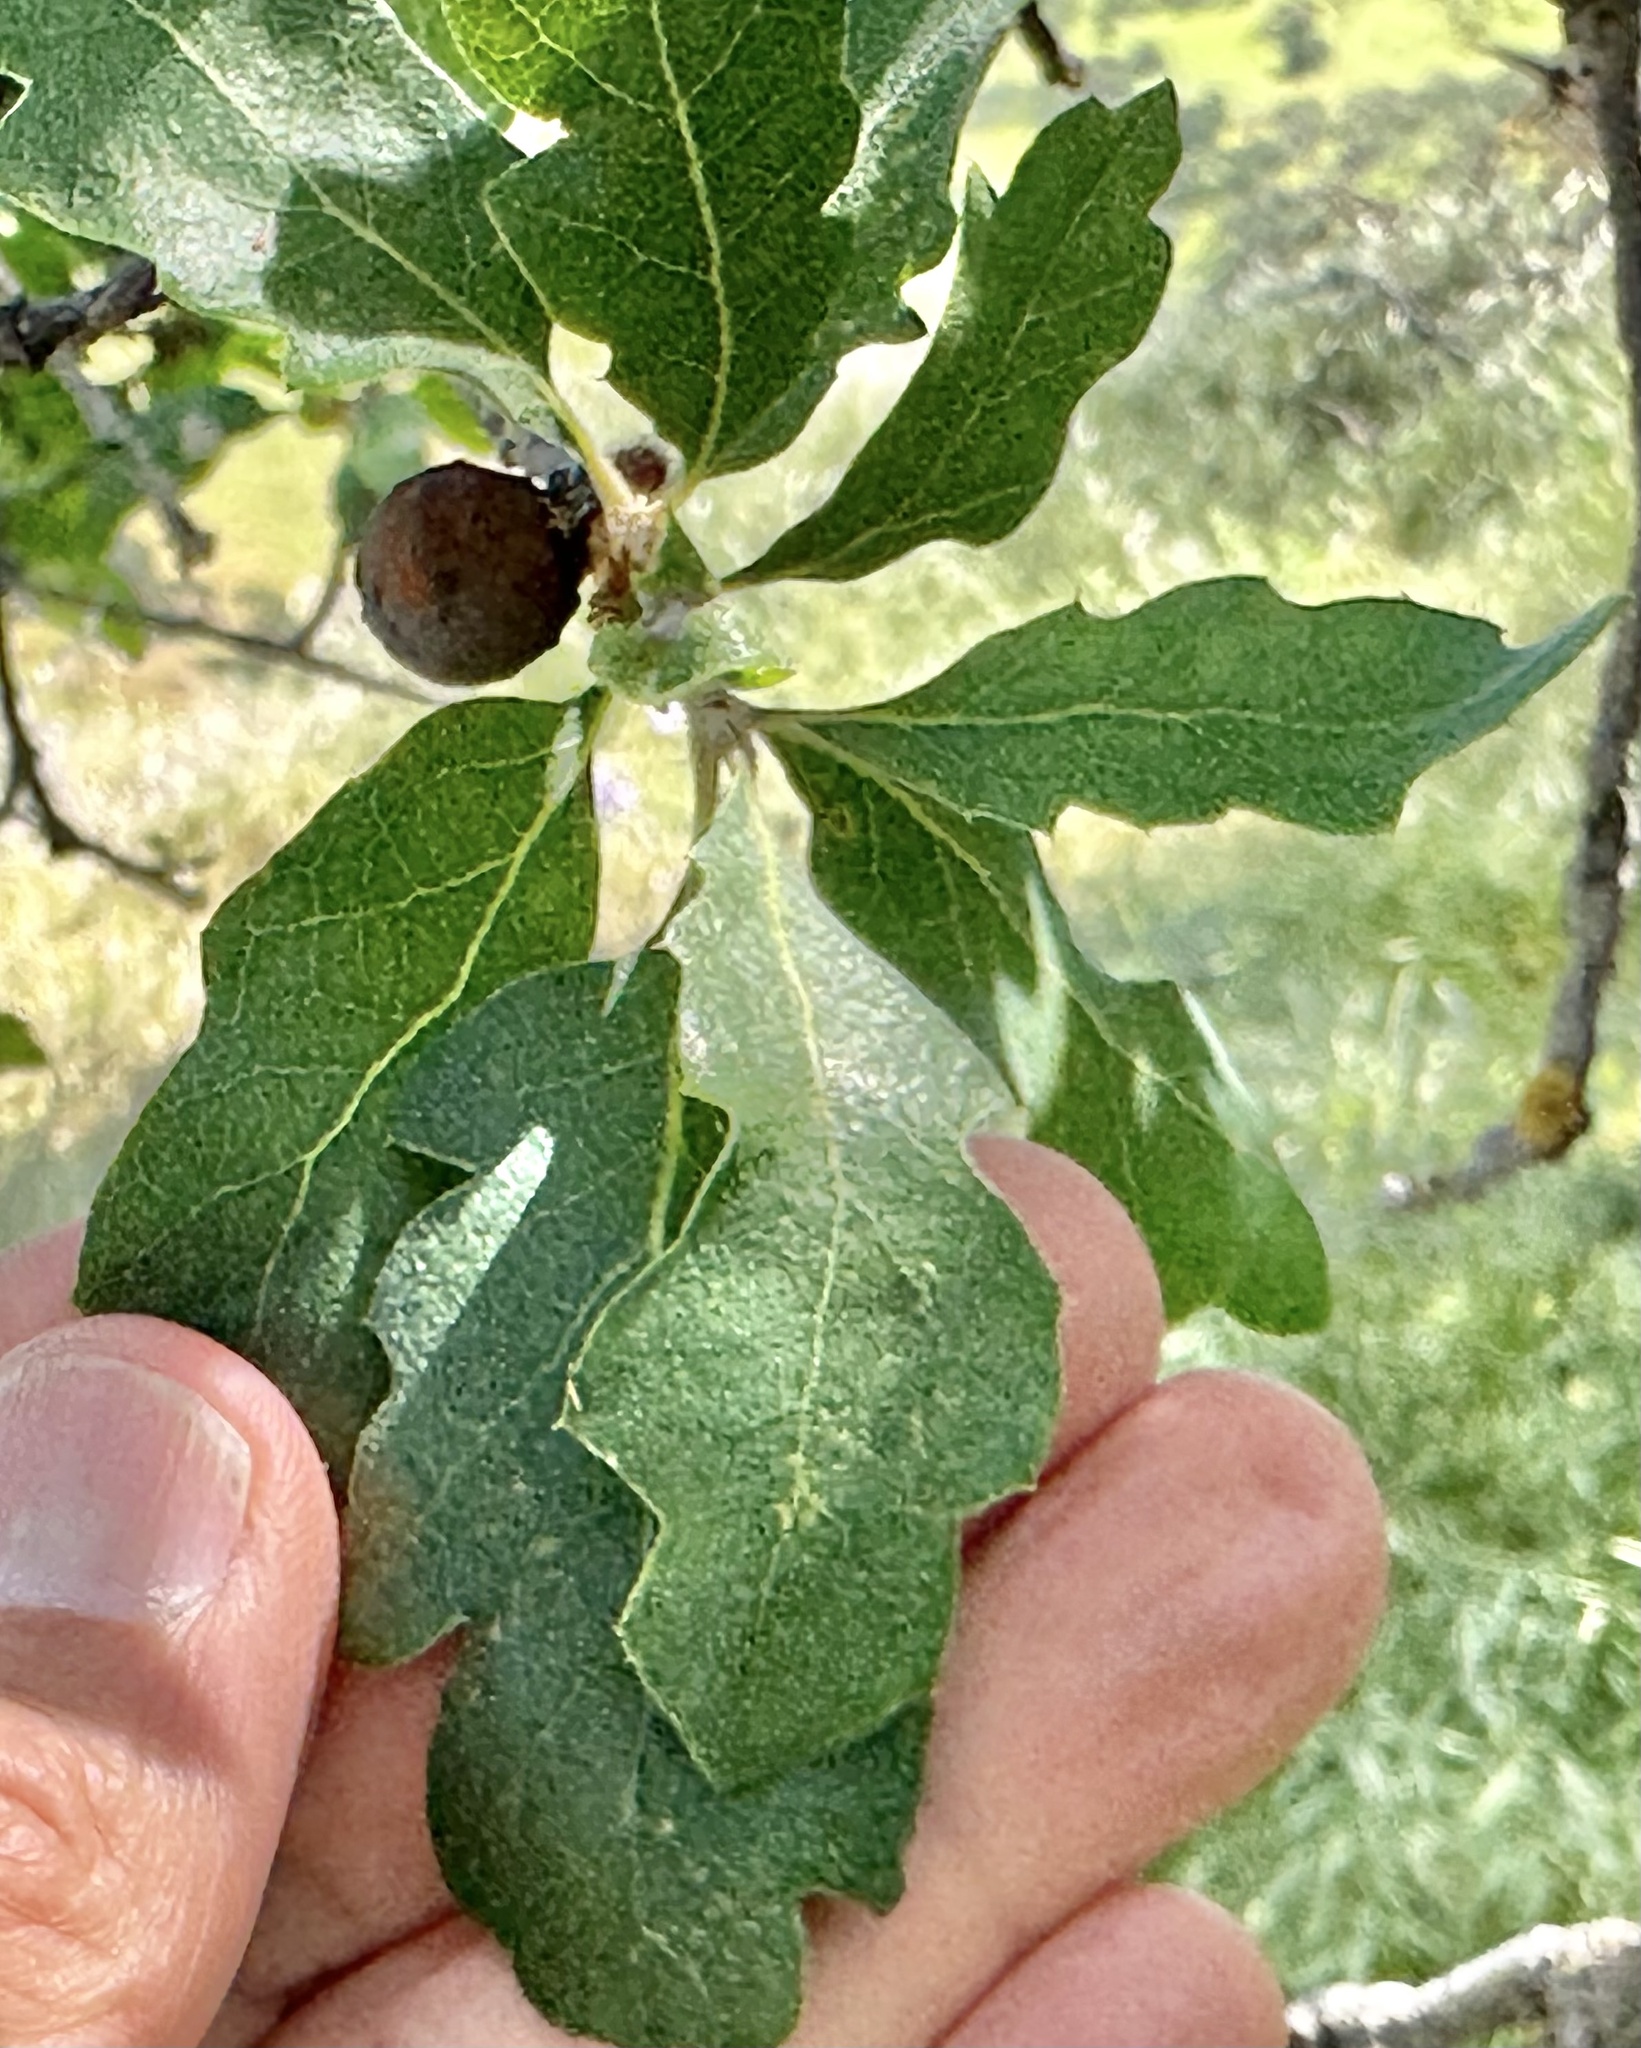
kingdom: Plantae
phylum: Tracheophyta
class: Magnoliopsida
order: Fagales
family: Fagaceae
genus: Quercus
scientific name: Quercus douglasii
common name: Blue oak
